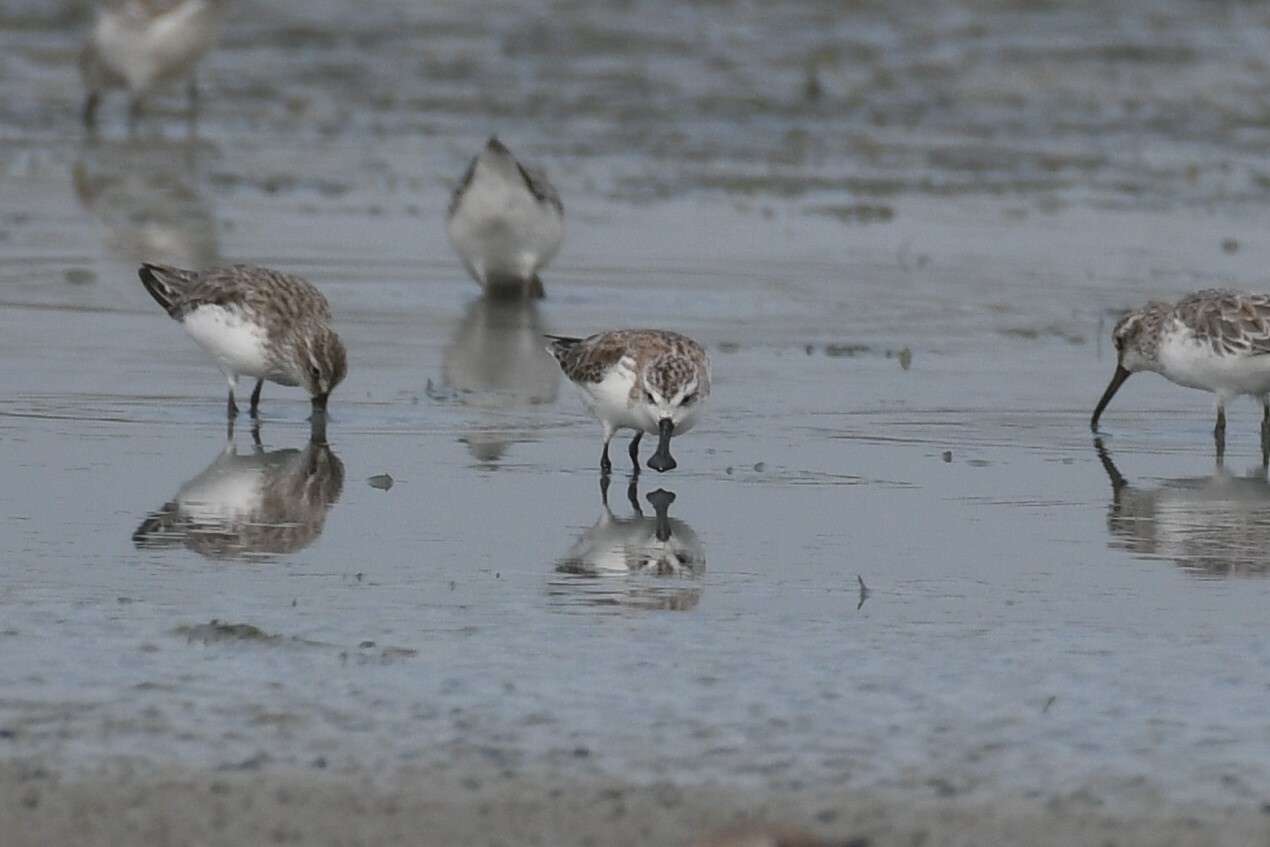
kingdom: Animalia
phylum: Chordata
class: Aves
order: Charadriiformes
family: Scolopacidae
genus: Calidris
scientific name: Calidris pygmaea
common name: Spoon-billed sandpiper
